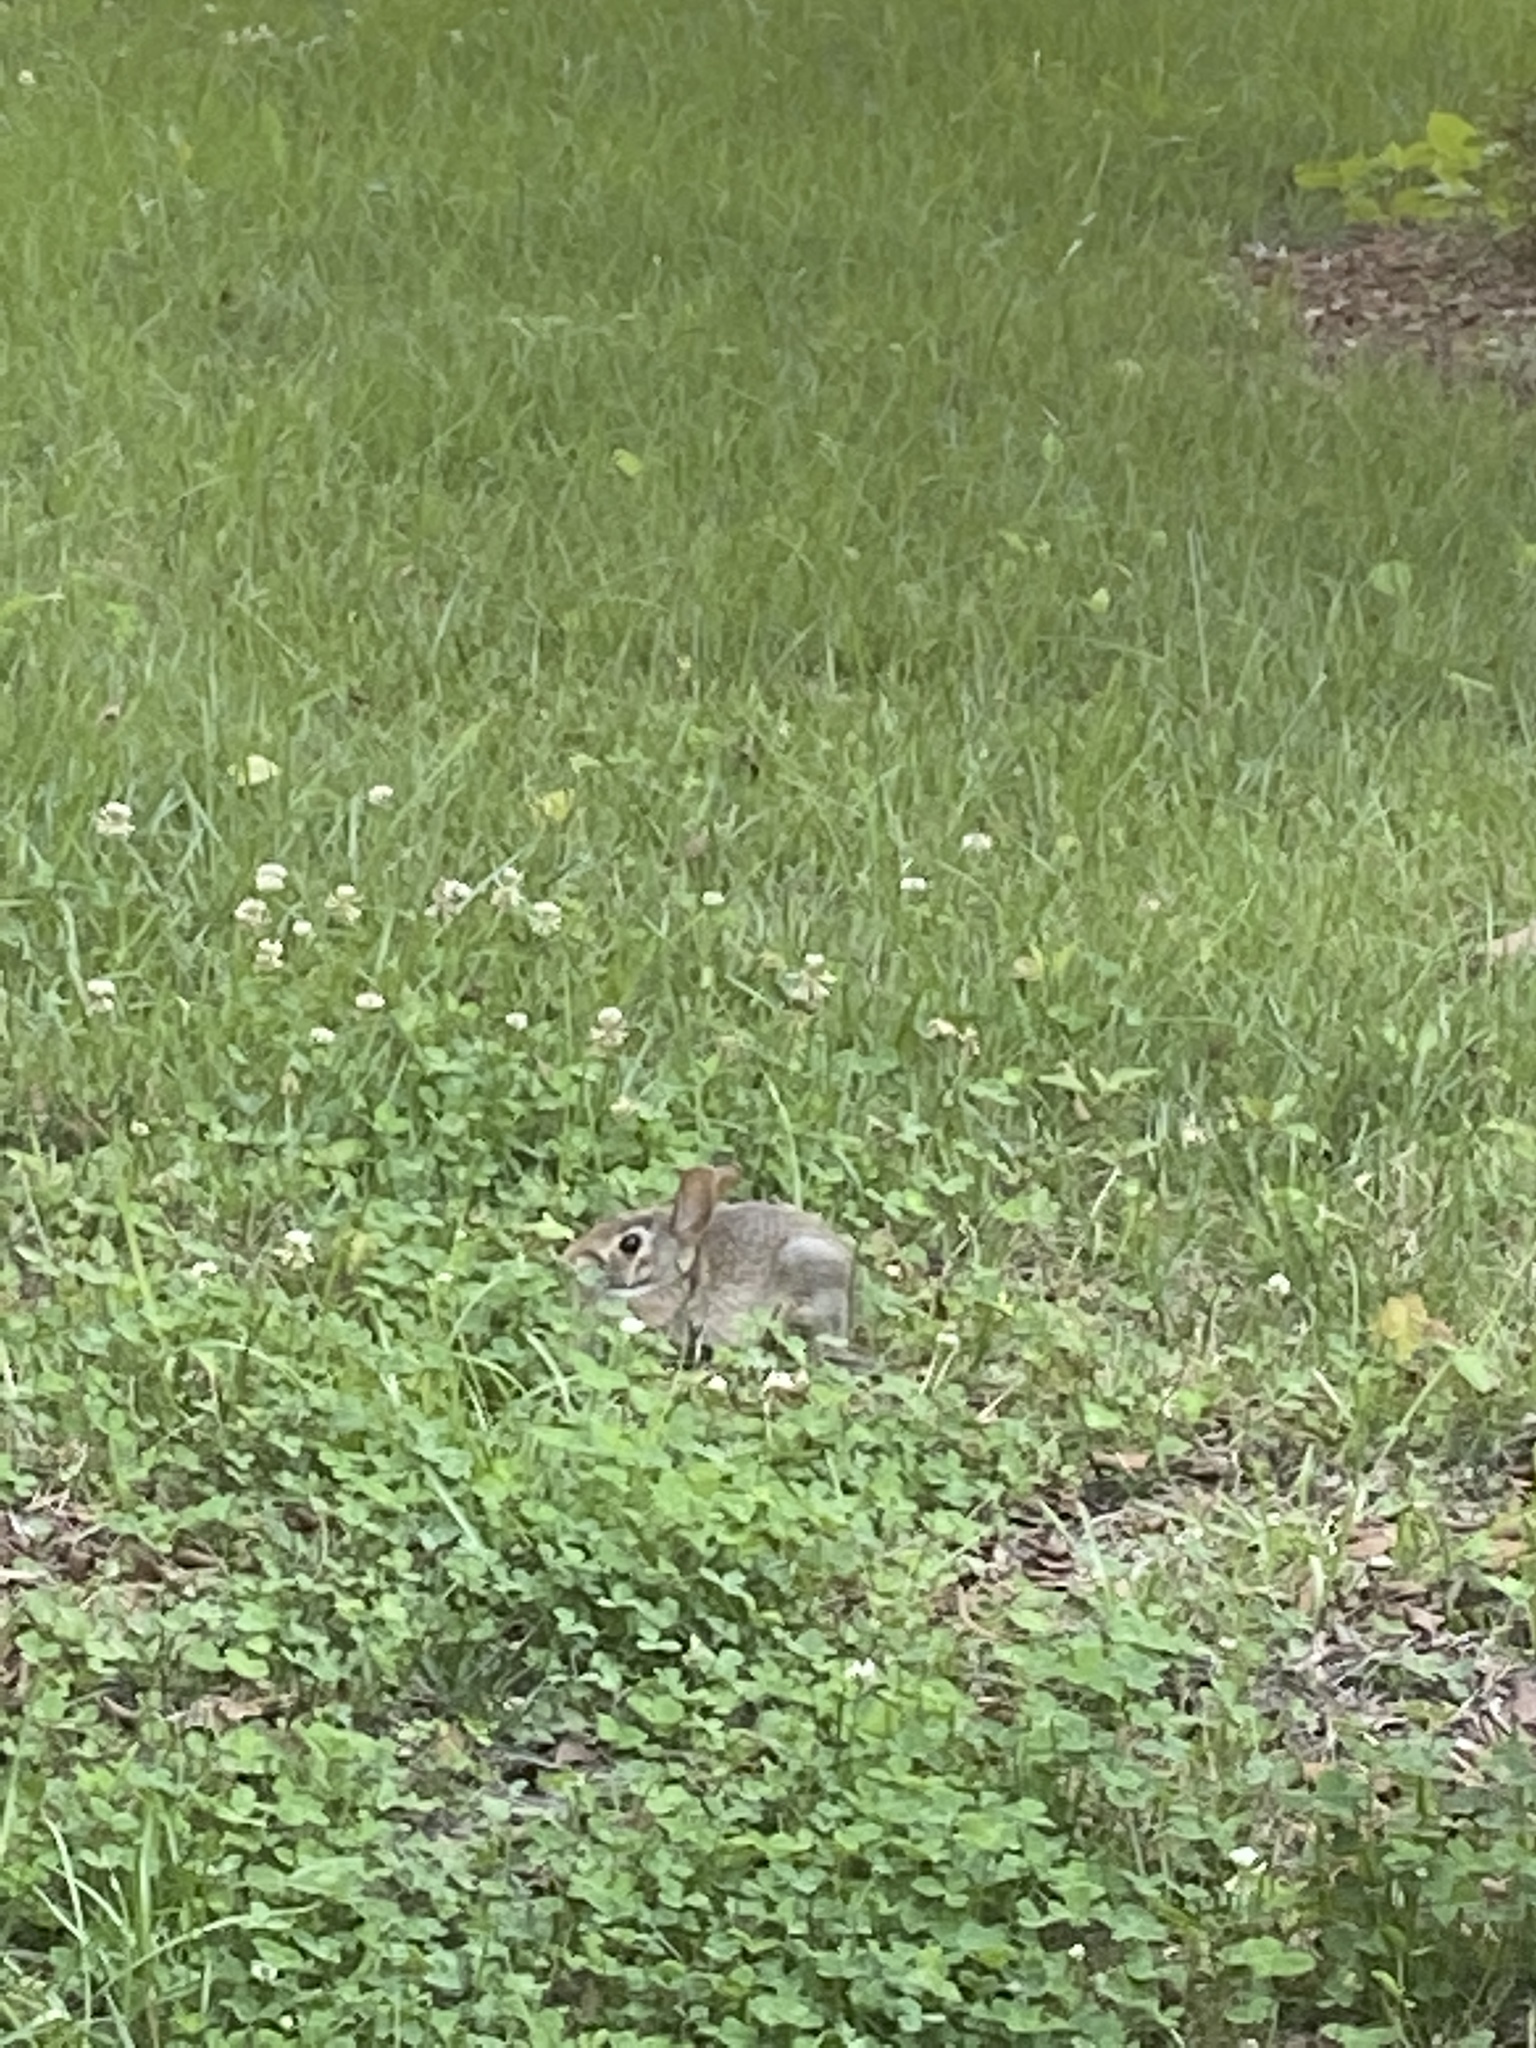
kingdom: Animalia
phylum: Chordata
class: Mammalia
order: Lagomorpha
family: Leporidae
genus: Sylvilagus
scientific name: Sylvilagus floridanus
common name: Eastern cottontail
